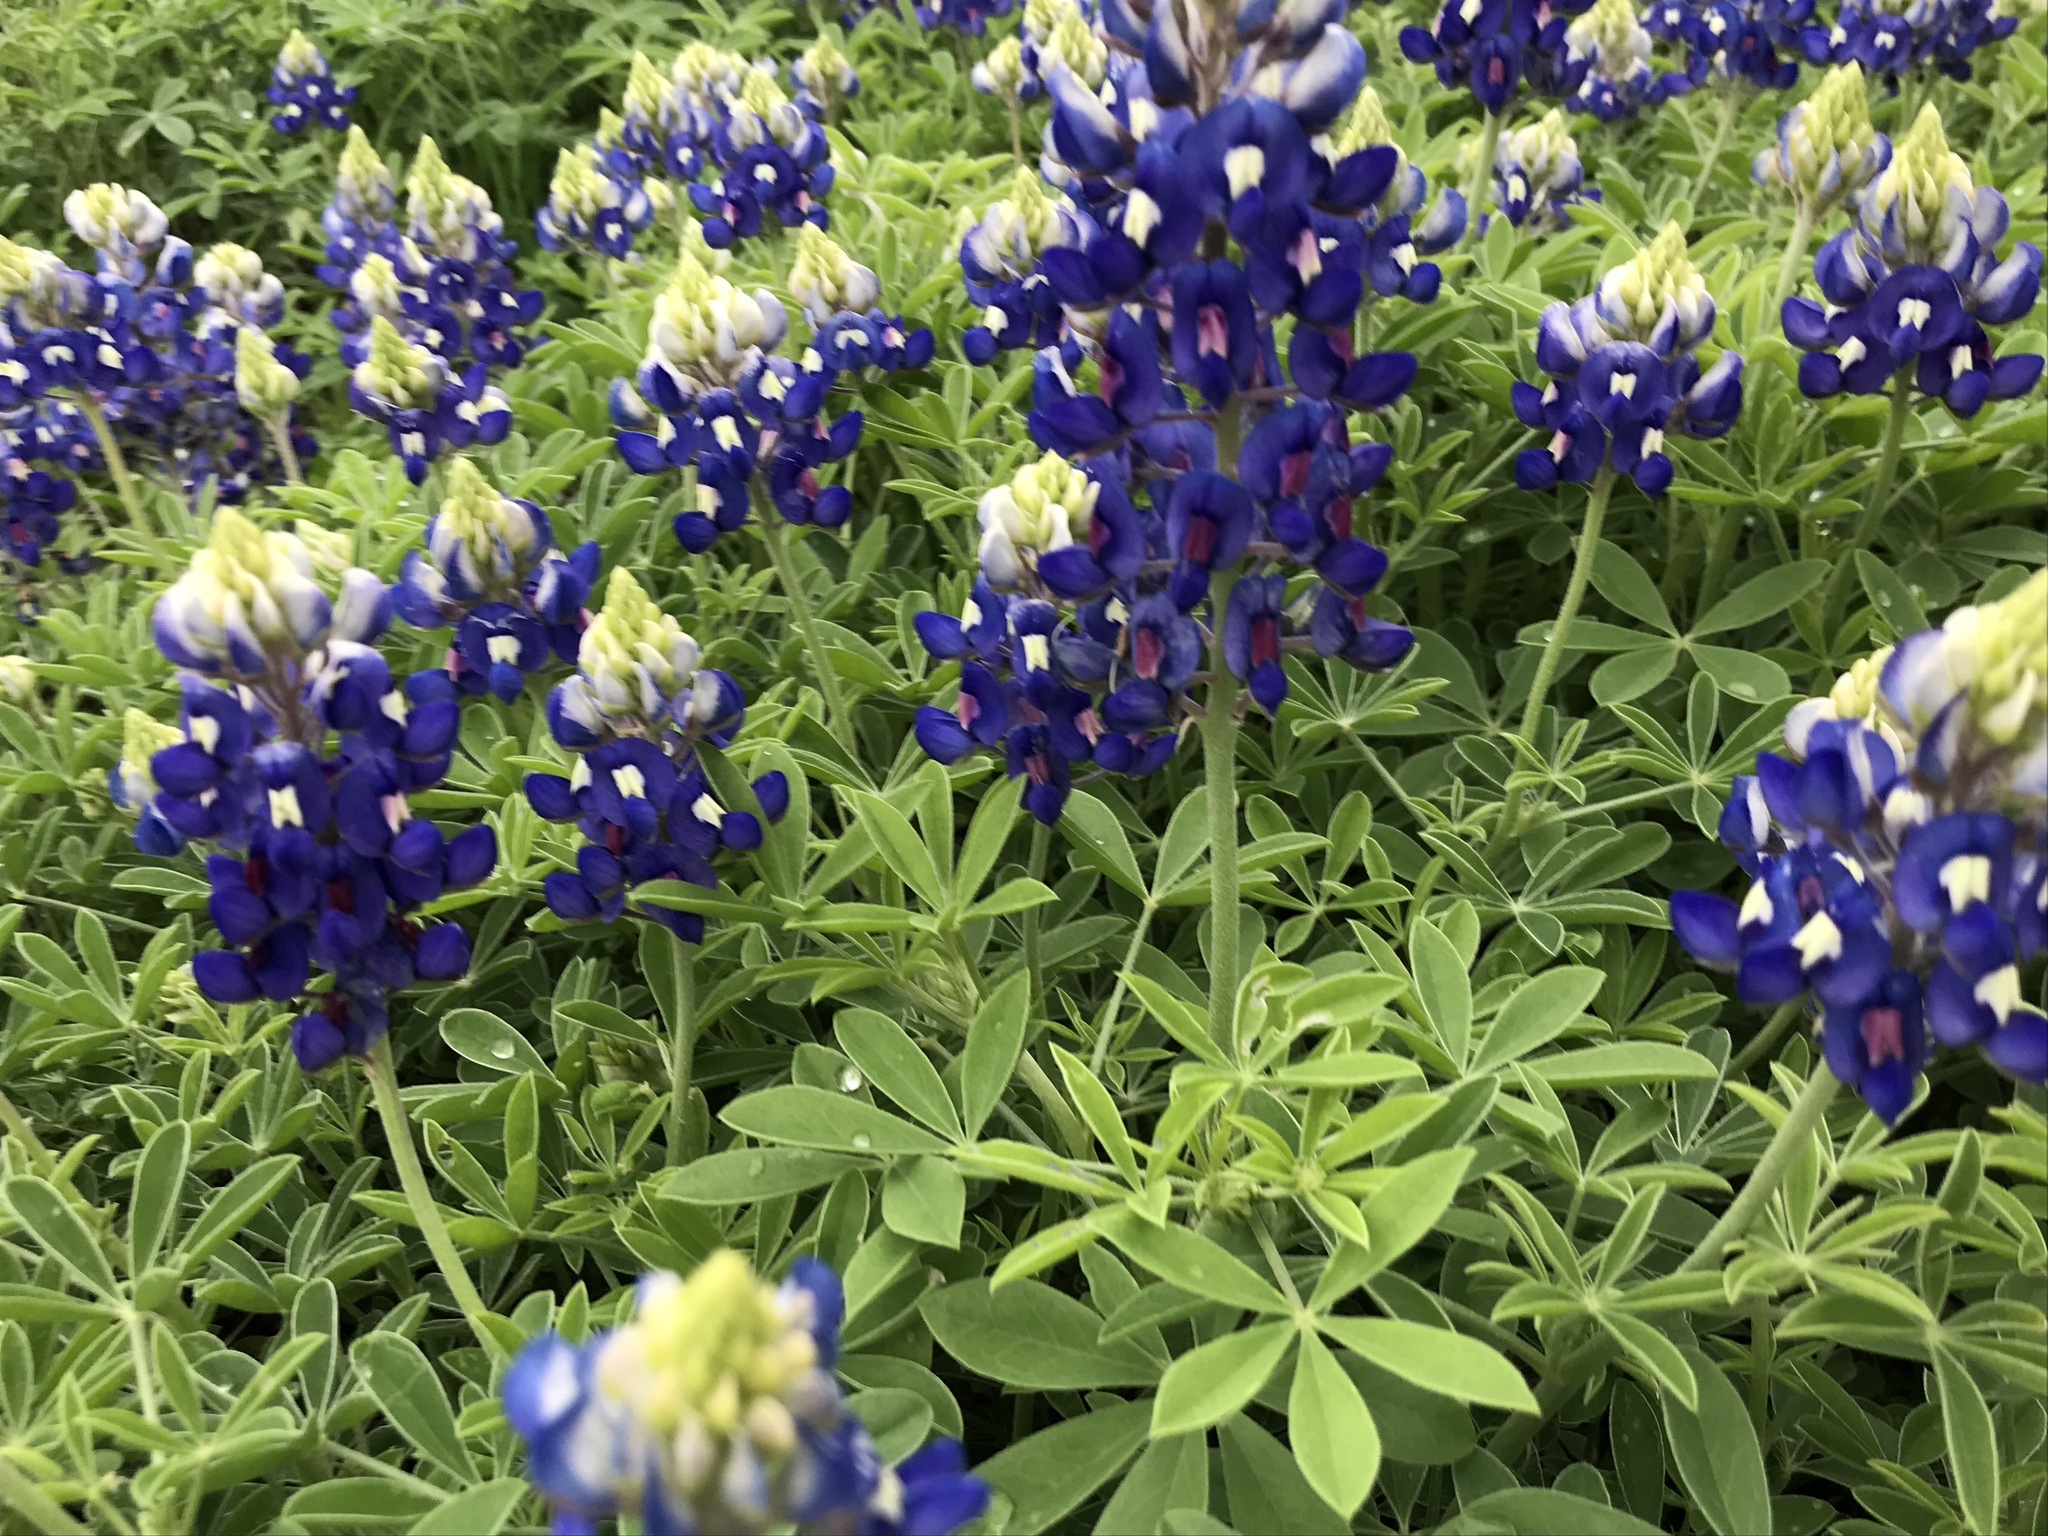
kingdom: Plantae
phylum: Tracheophyta
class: Magnoliopsida
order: Fabales
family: Fabaceae
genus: Lupinus
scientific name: Lupinus texensis
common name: Texas bluebonnet
